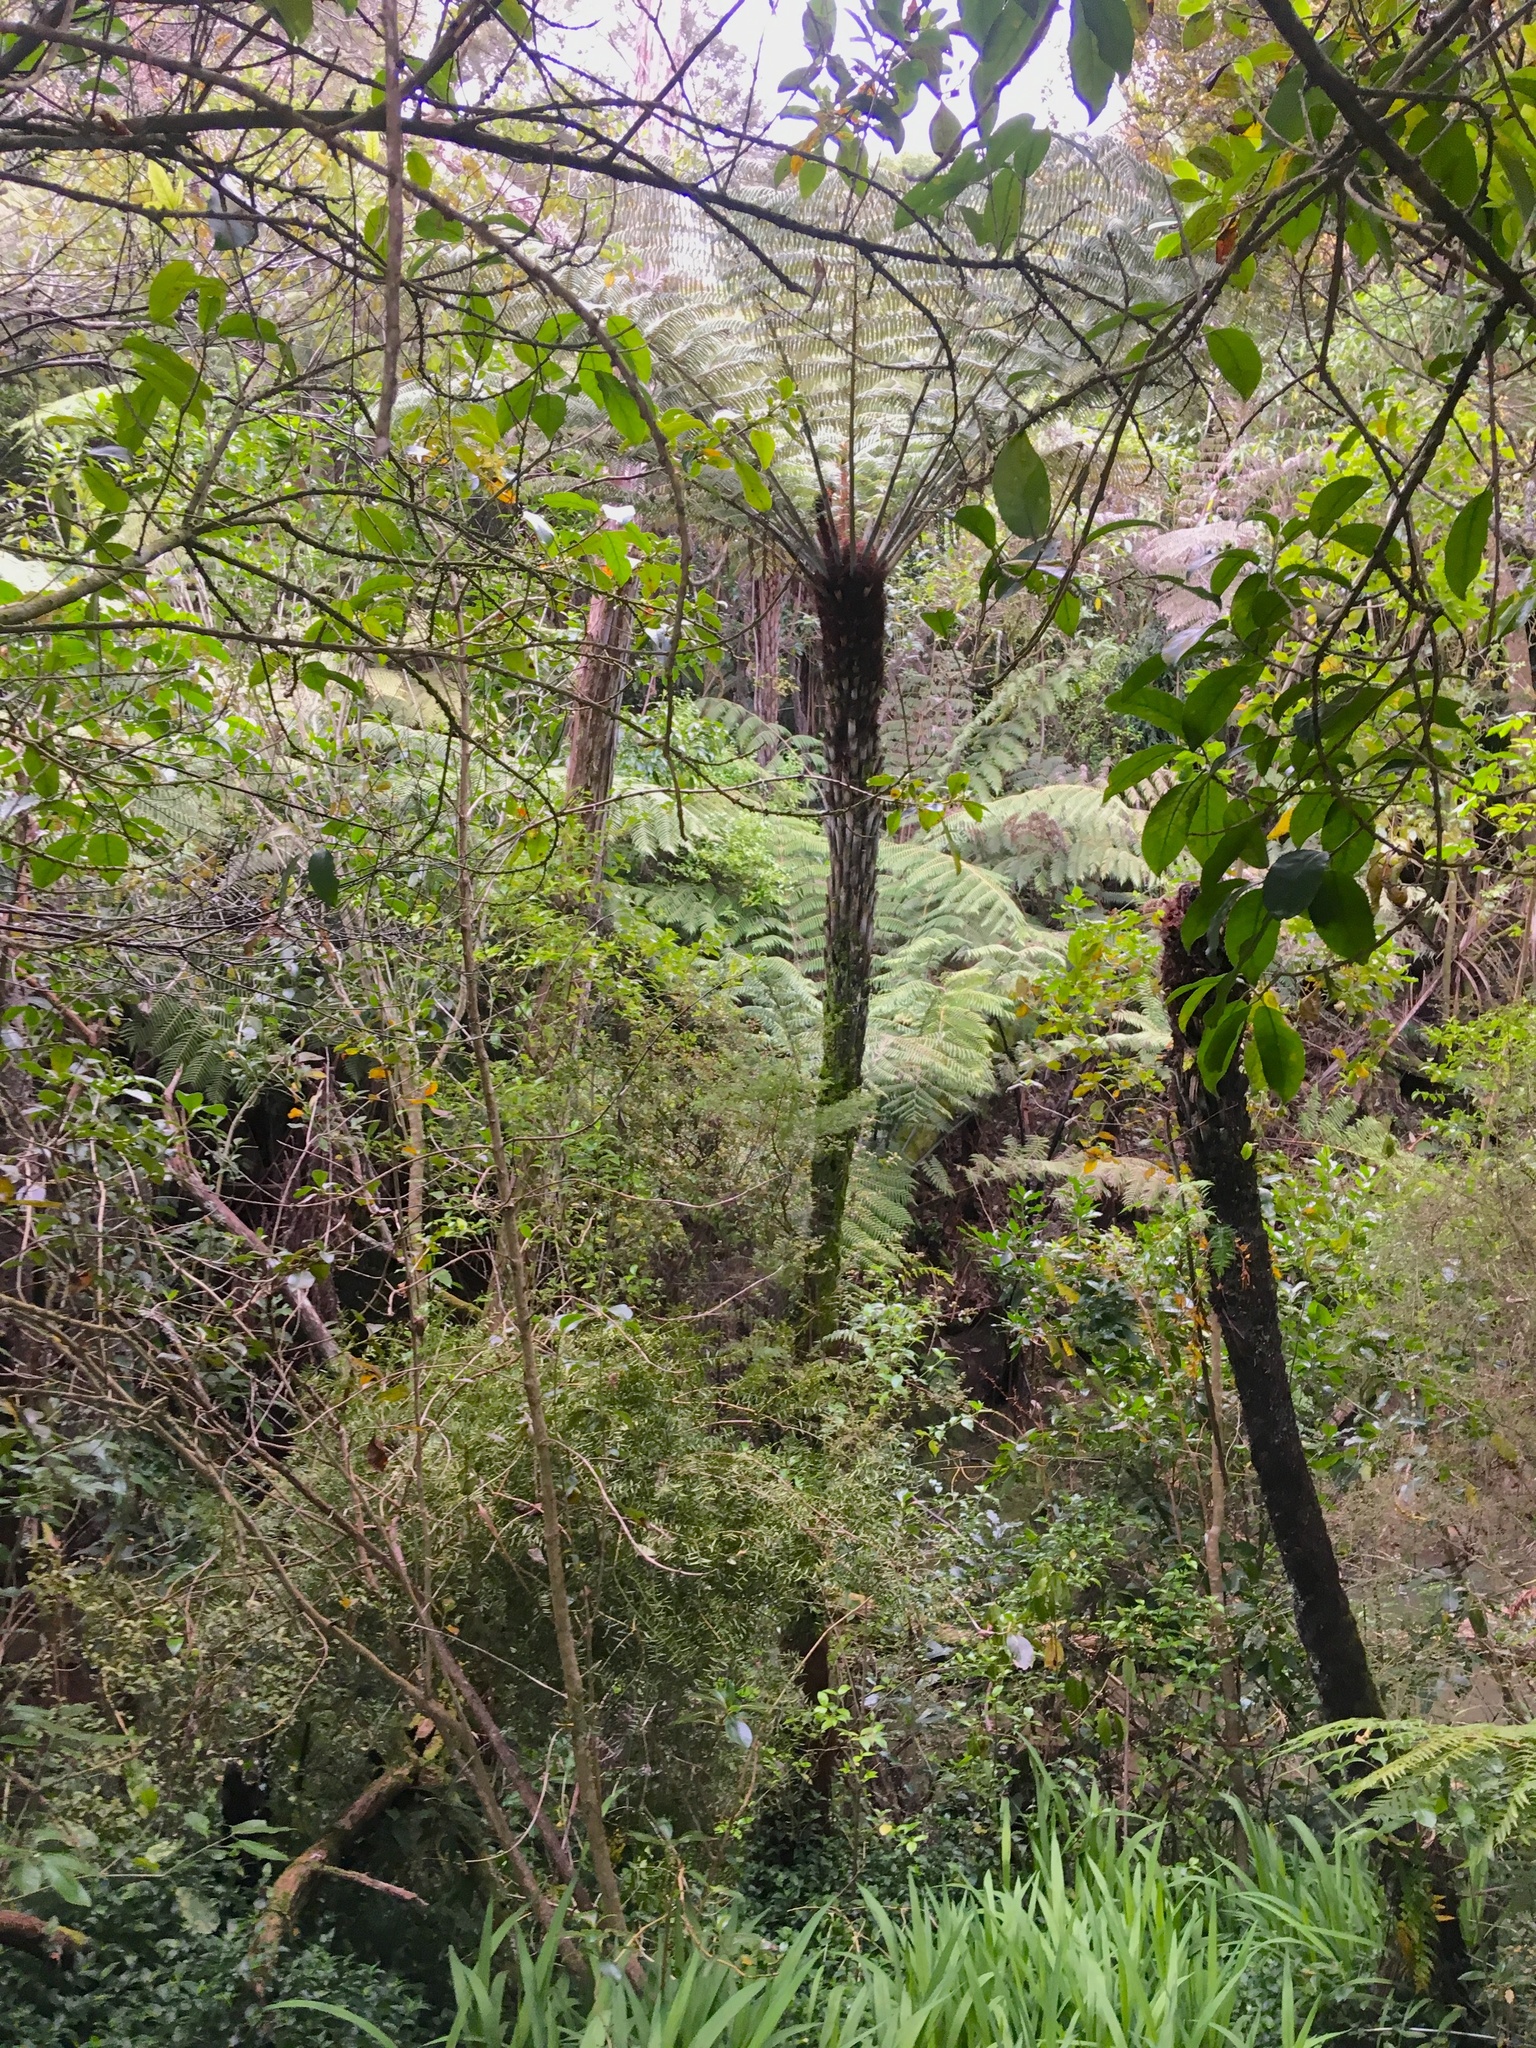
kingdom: Plantae
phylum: Tracheophyta
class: Polypodiopsida
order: Cyatheales
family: Cyatheaceae
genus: Alsophila
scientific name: Alsophila dealbata
